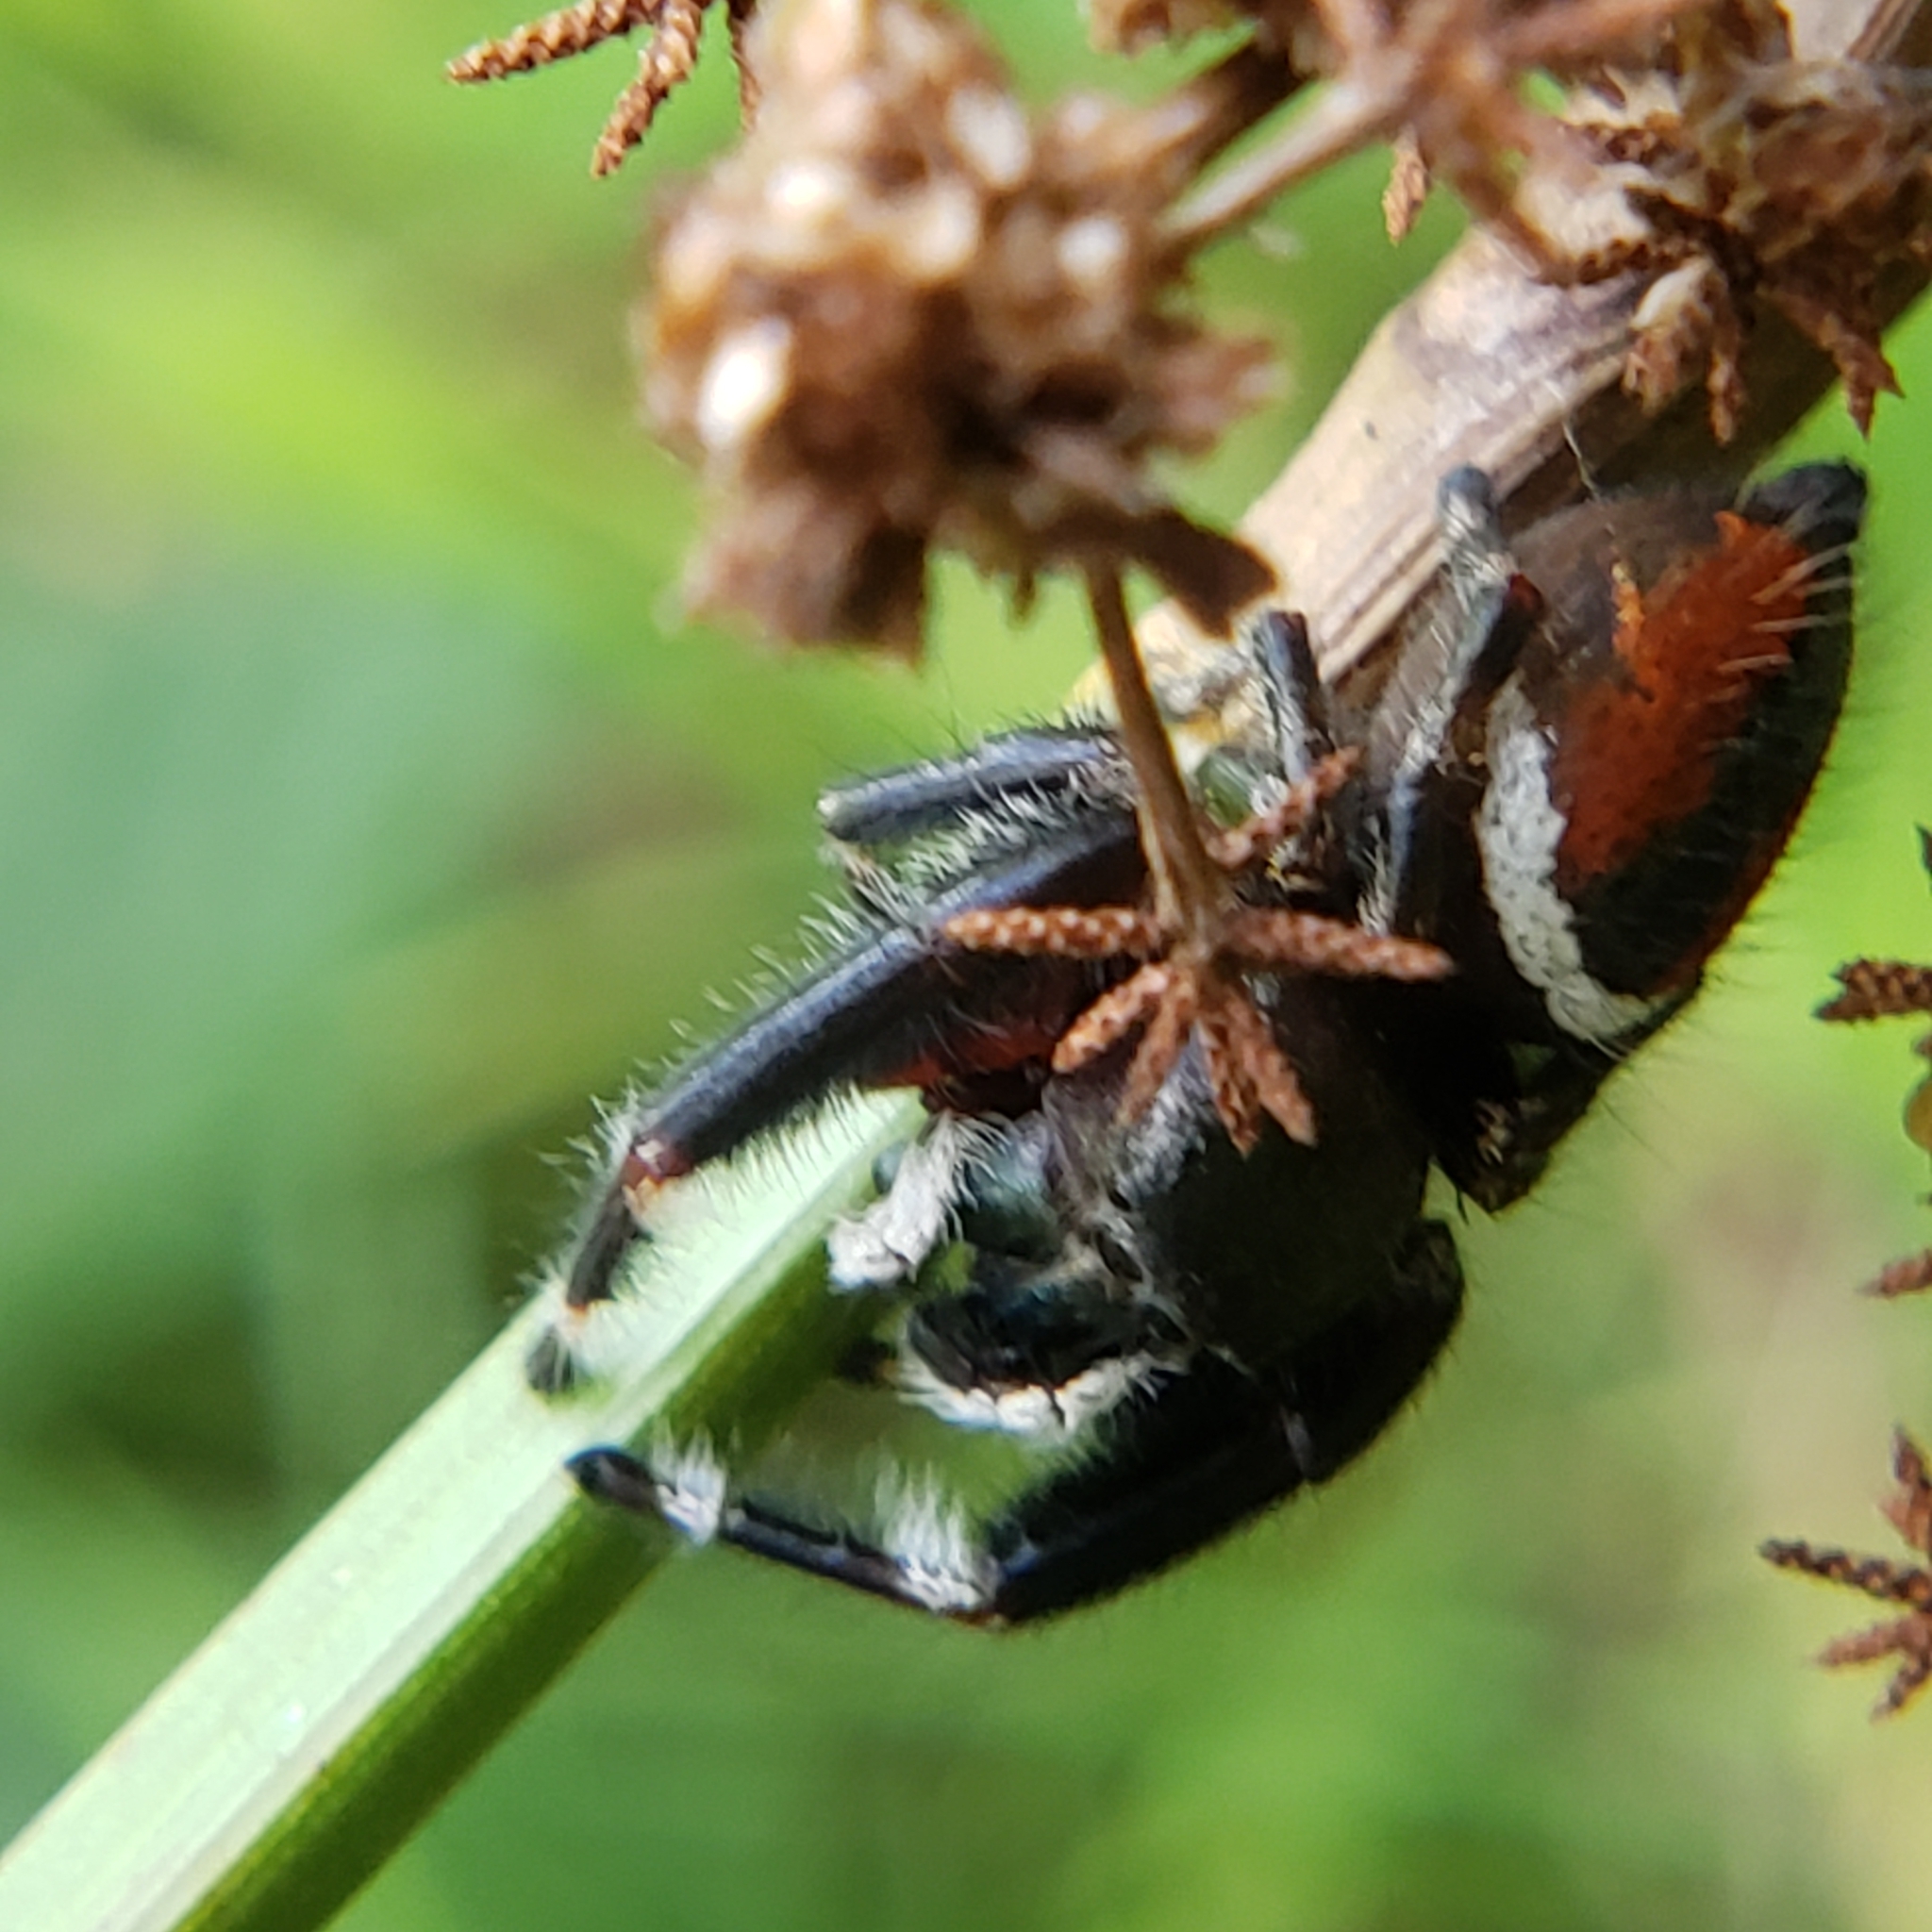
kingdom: Animalia
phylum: Arthropoda
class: Arachnida
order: Araneae
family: Salticidae
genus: Phidippus
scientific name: Phidippus clarus
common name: Brilliant jumping spider
